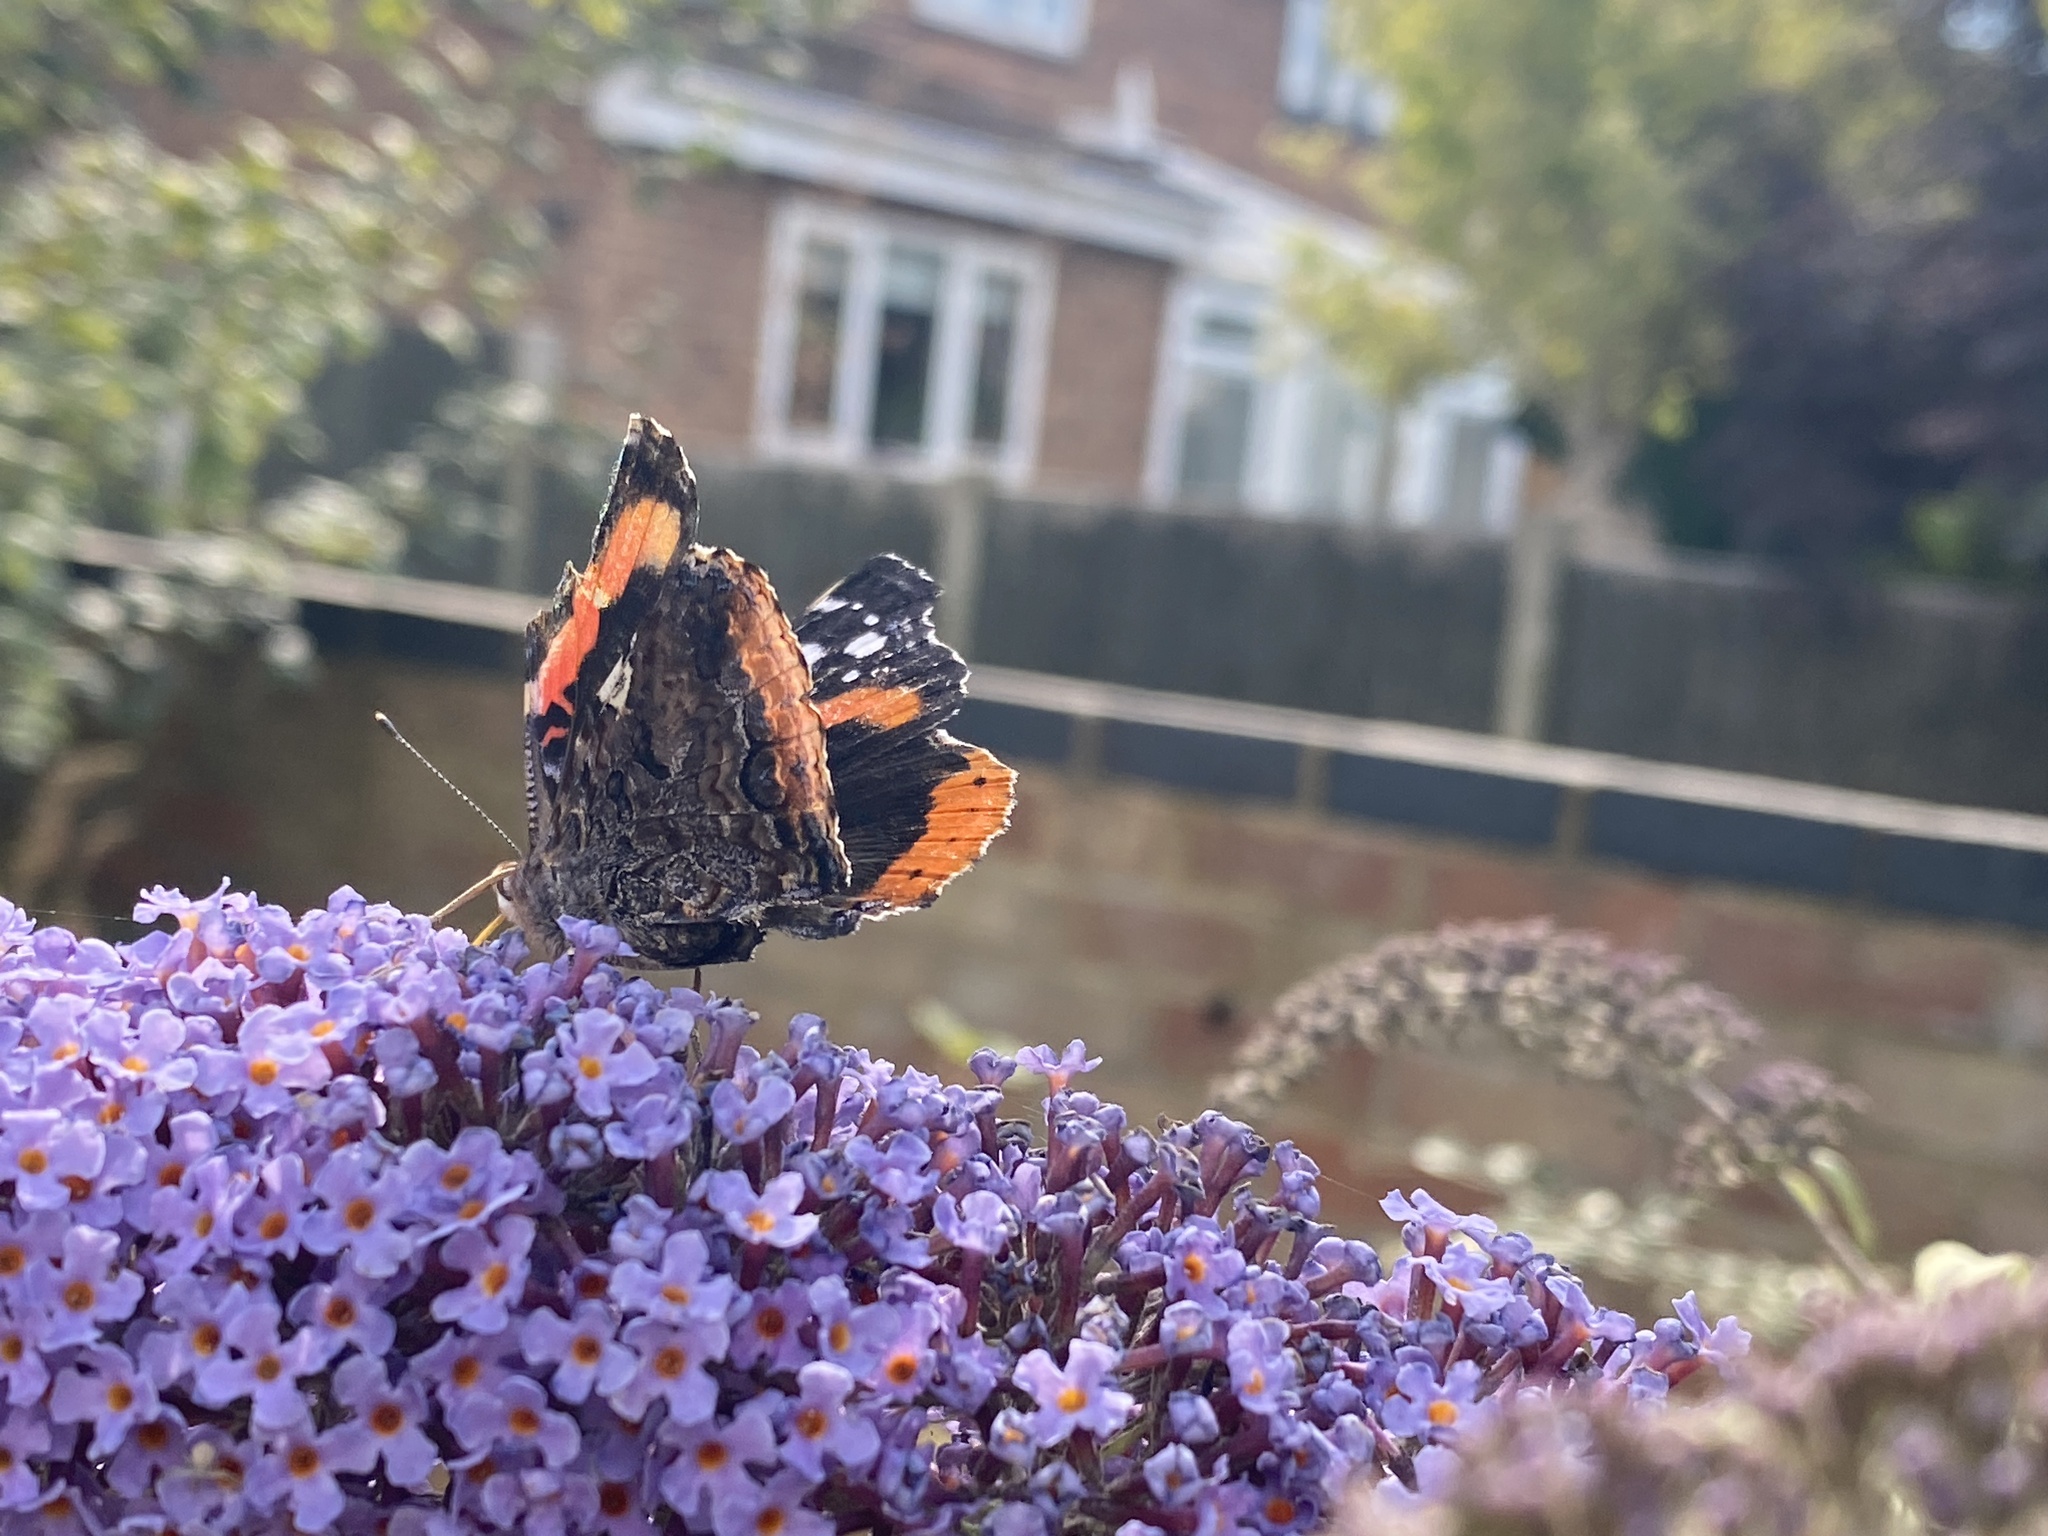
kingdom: Animalia
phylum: Arthropoda
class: Insecta
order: Lepidoptera
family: Nymphalidae
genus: Vanessa
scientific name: Vanessa atalanta
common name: Red admiral
